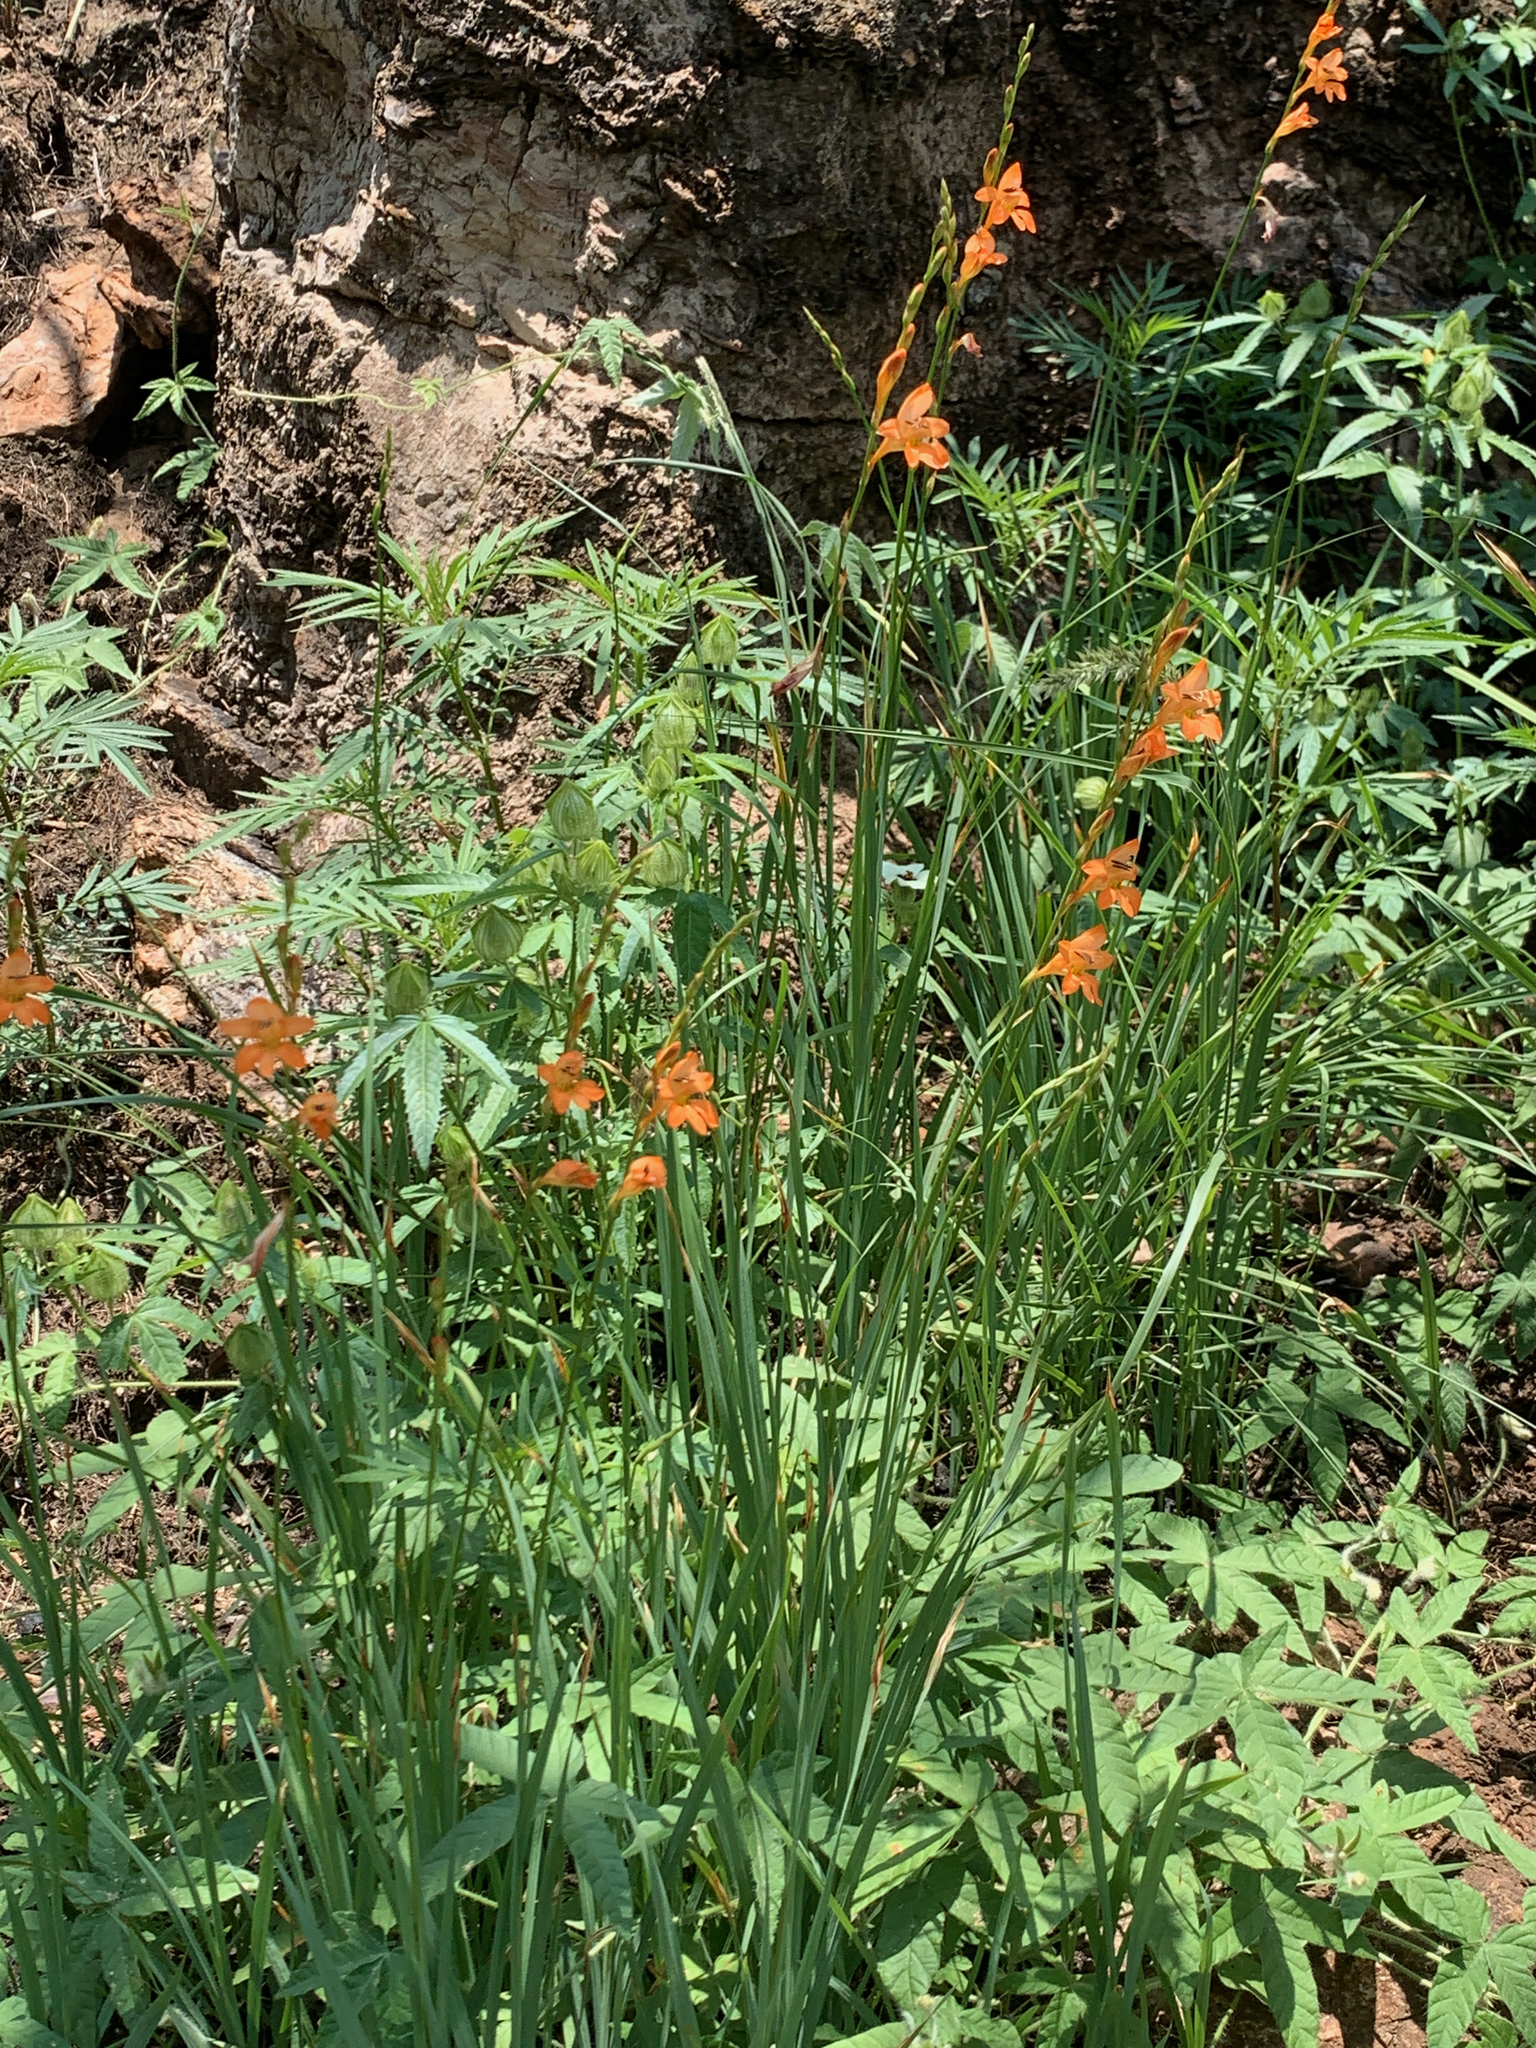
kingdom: Plantae
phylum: Tracheophyta
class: Liliopsida
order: Asparagales
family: Iridaceae
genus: Tritonia
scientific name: Tritonia nelsonii
